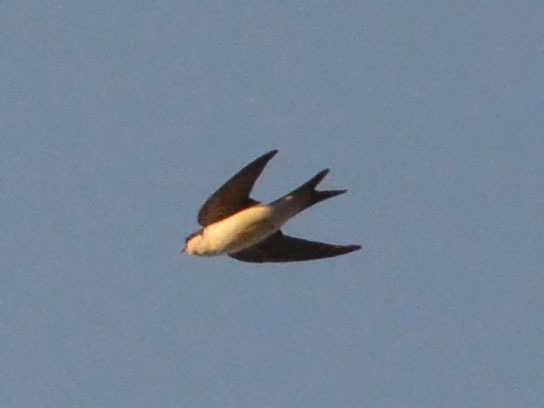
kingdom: Animalia
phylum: Chordata
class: Aves
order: Passeriformes
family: Hirundinidae
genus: Delichon
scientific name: Delichon urbicum
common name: Common house martin
